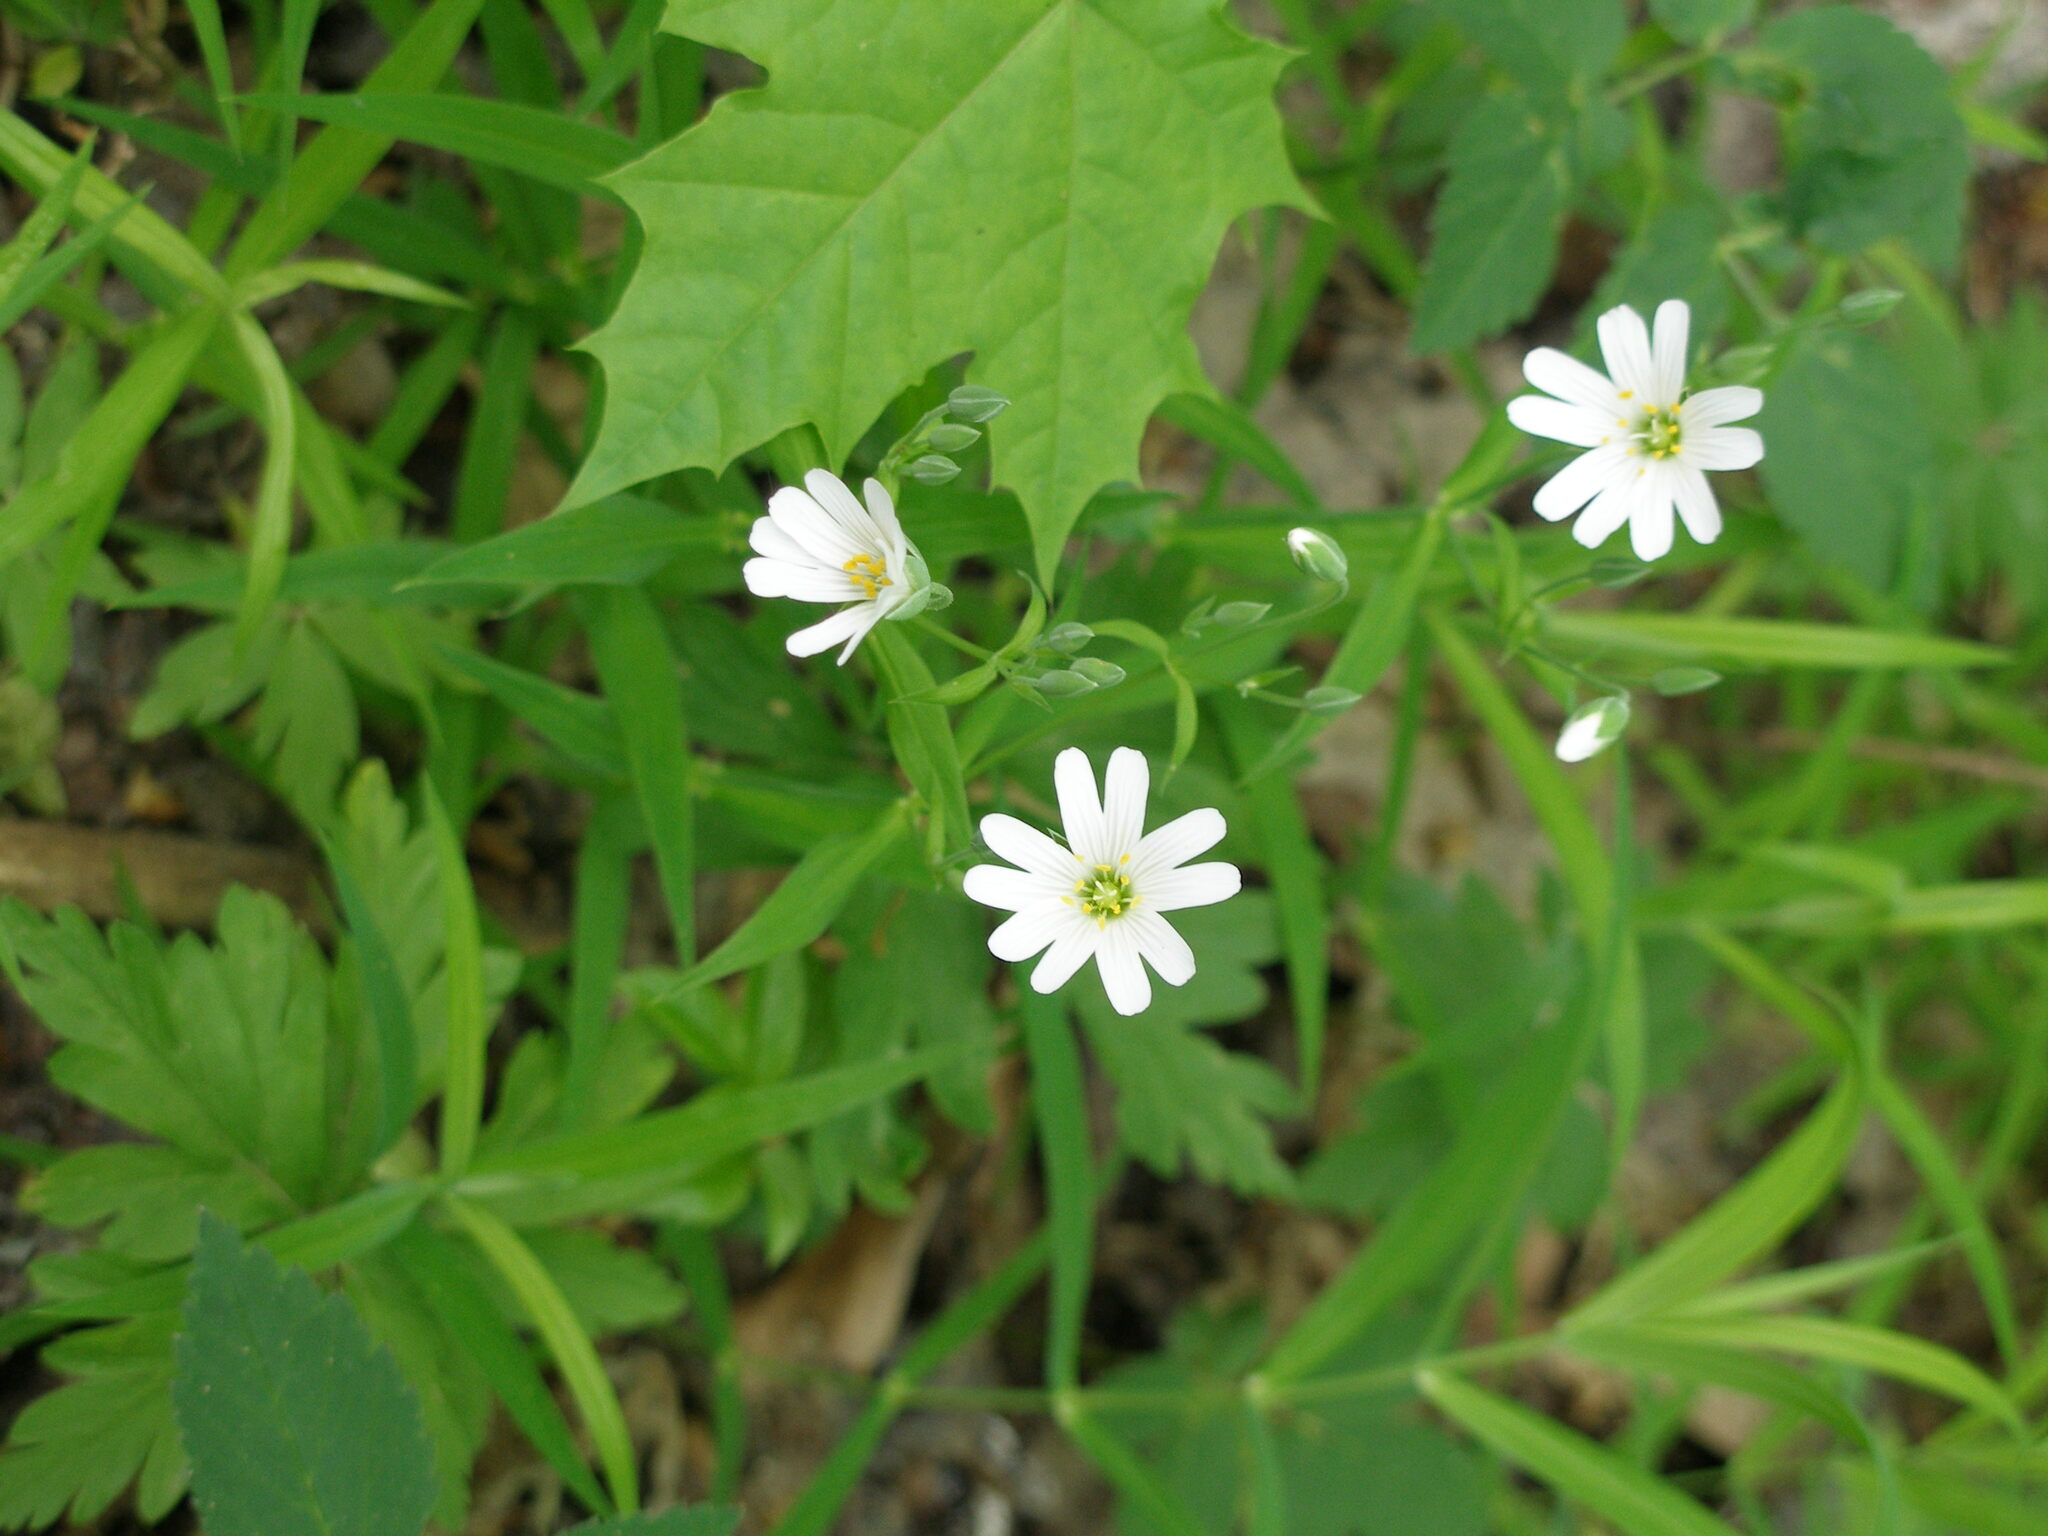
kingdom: Plantae
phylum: Tracheophyta
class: Magnoliopsida
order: Caryophyllales
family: Caryophyllaceae
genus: Rabelera
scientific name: Rabelera holostea
